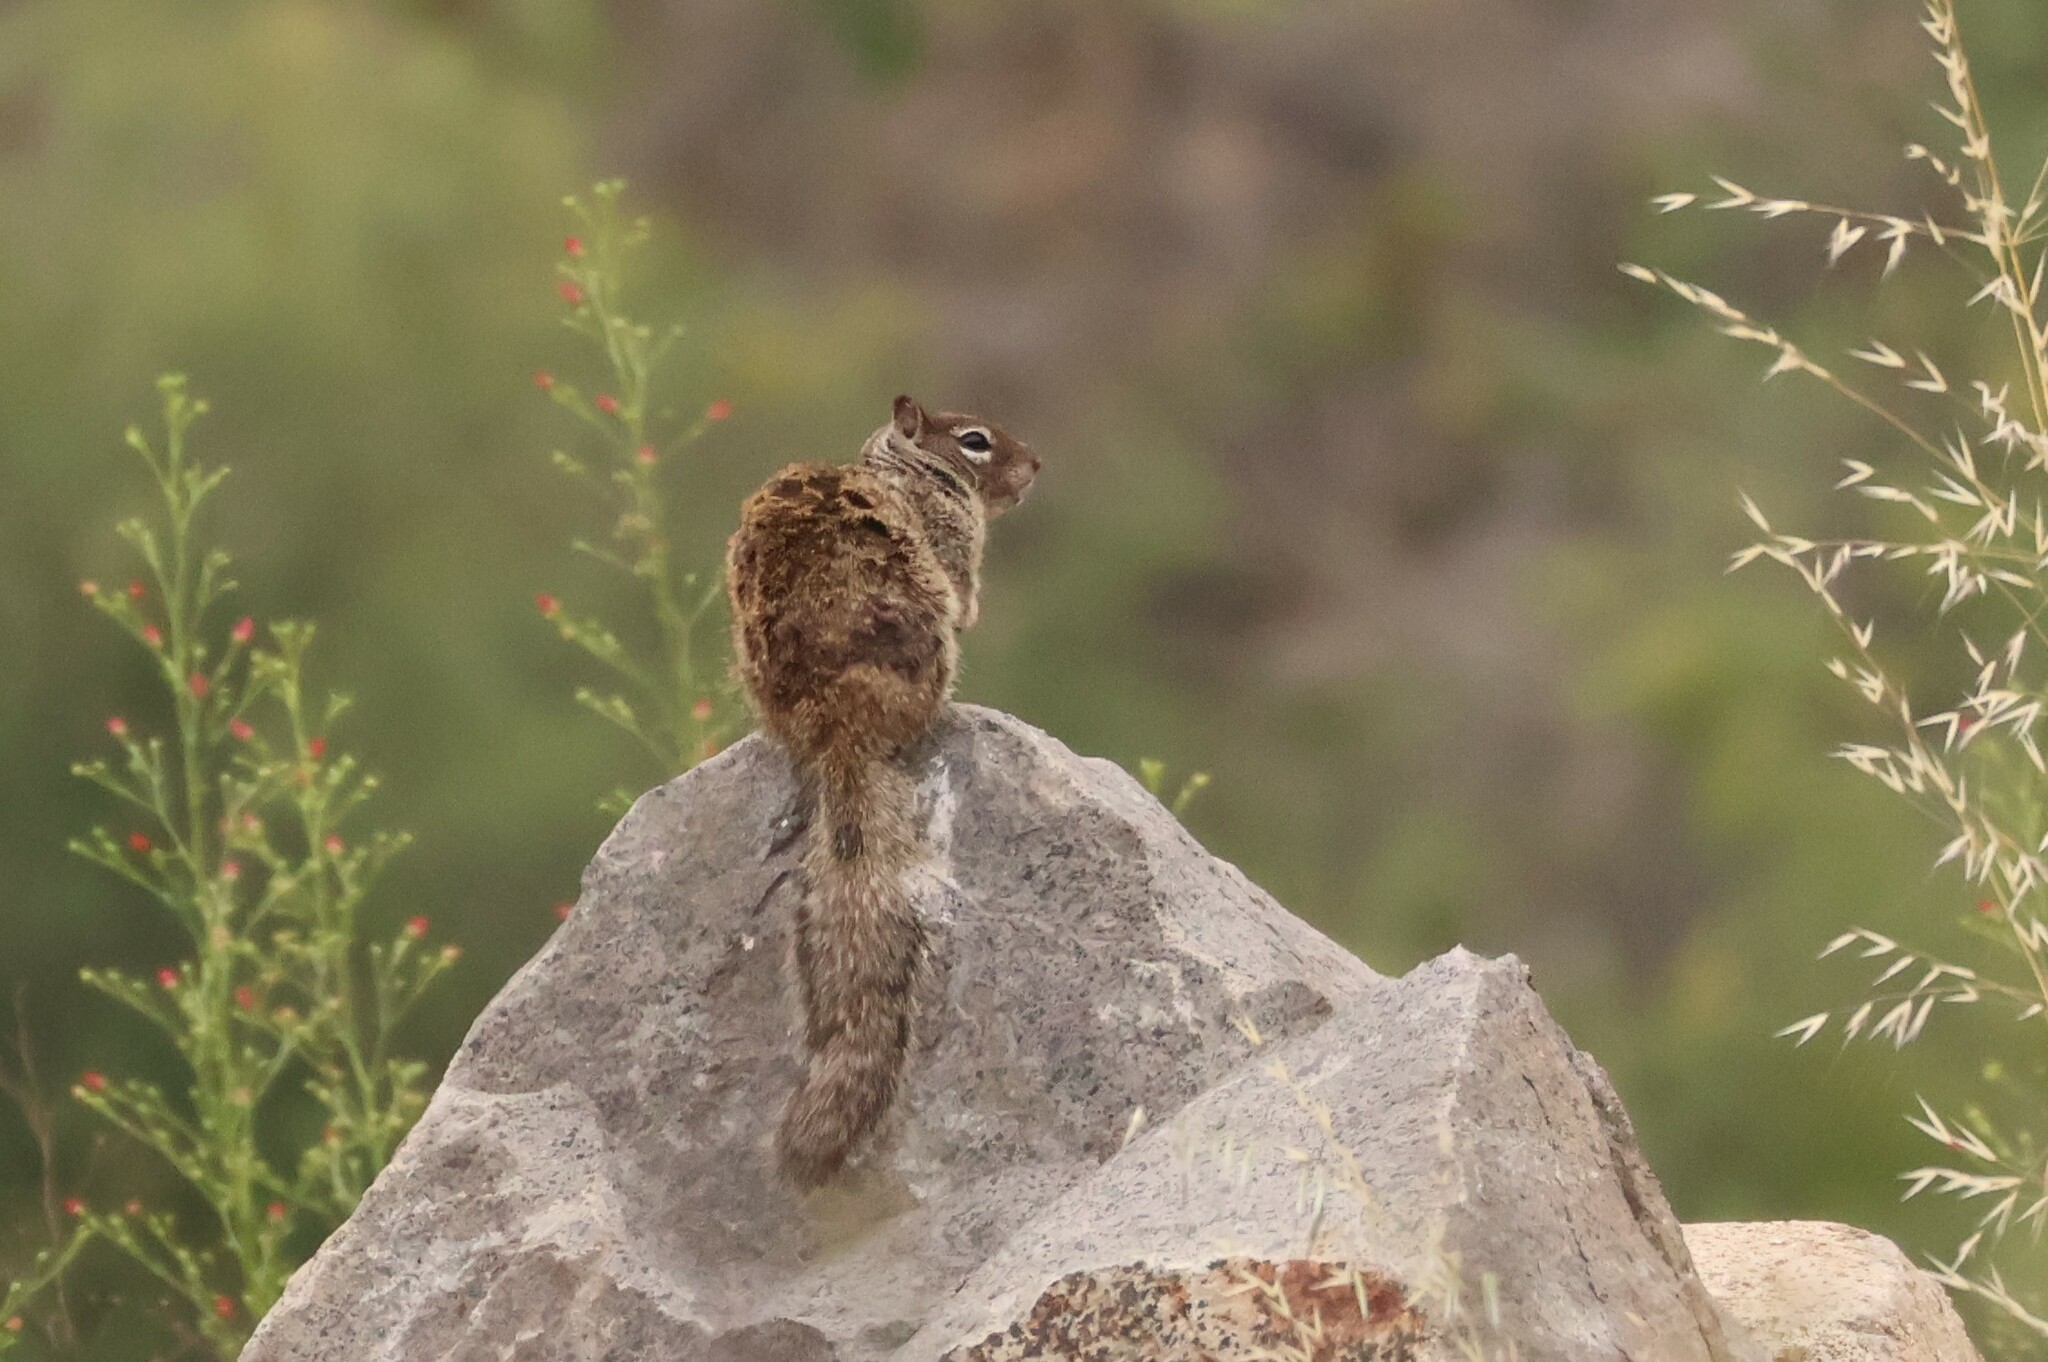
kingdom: Animalia
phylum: Chordata
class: Mammalia
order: Rodentia
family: Sciuridae
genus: Otospermophilus
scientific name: Otospermophilus beecheyi
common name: California ground squirrel
